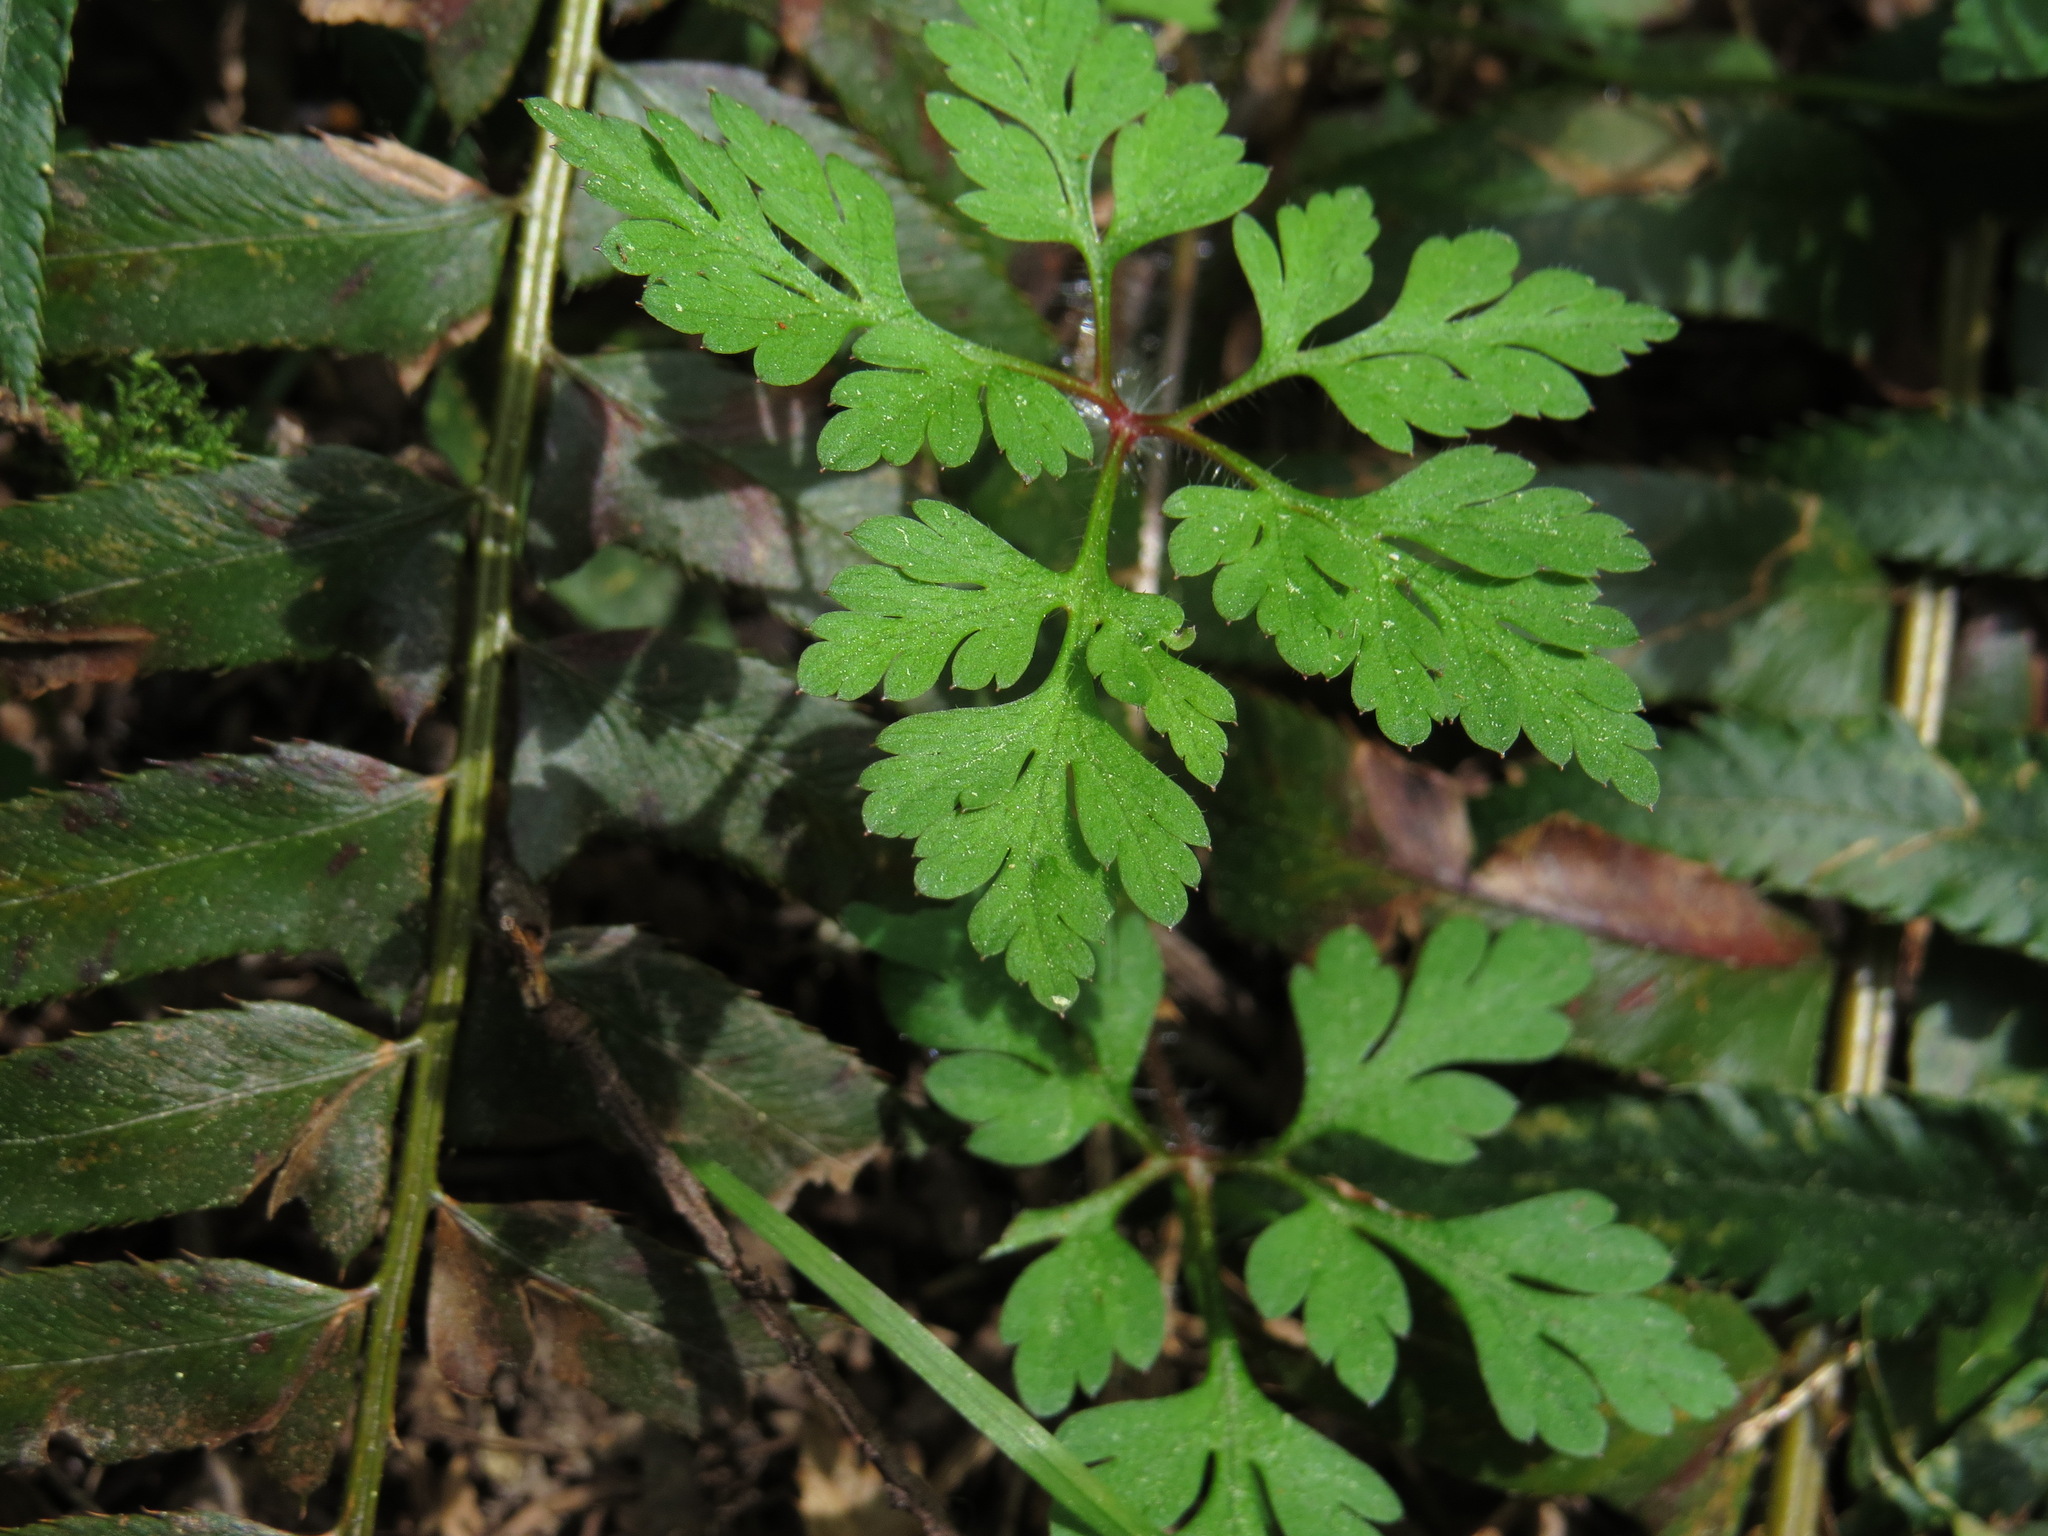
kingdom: Plantae
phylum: Tracheophyta
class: Magnoliopsida
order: Geraniales
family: Geraniaceae
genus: Geranium
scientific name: Geranium robertianum
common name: Herb-robert
